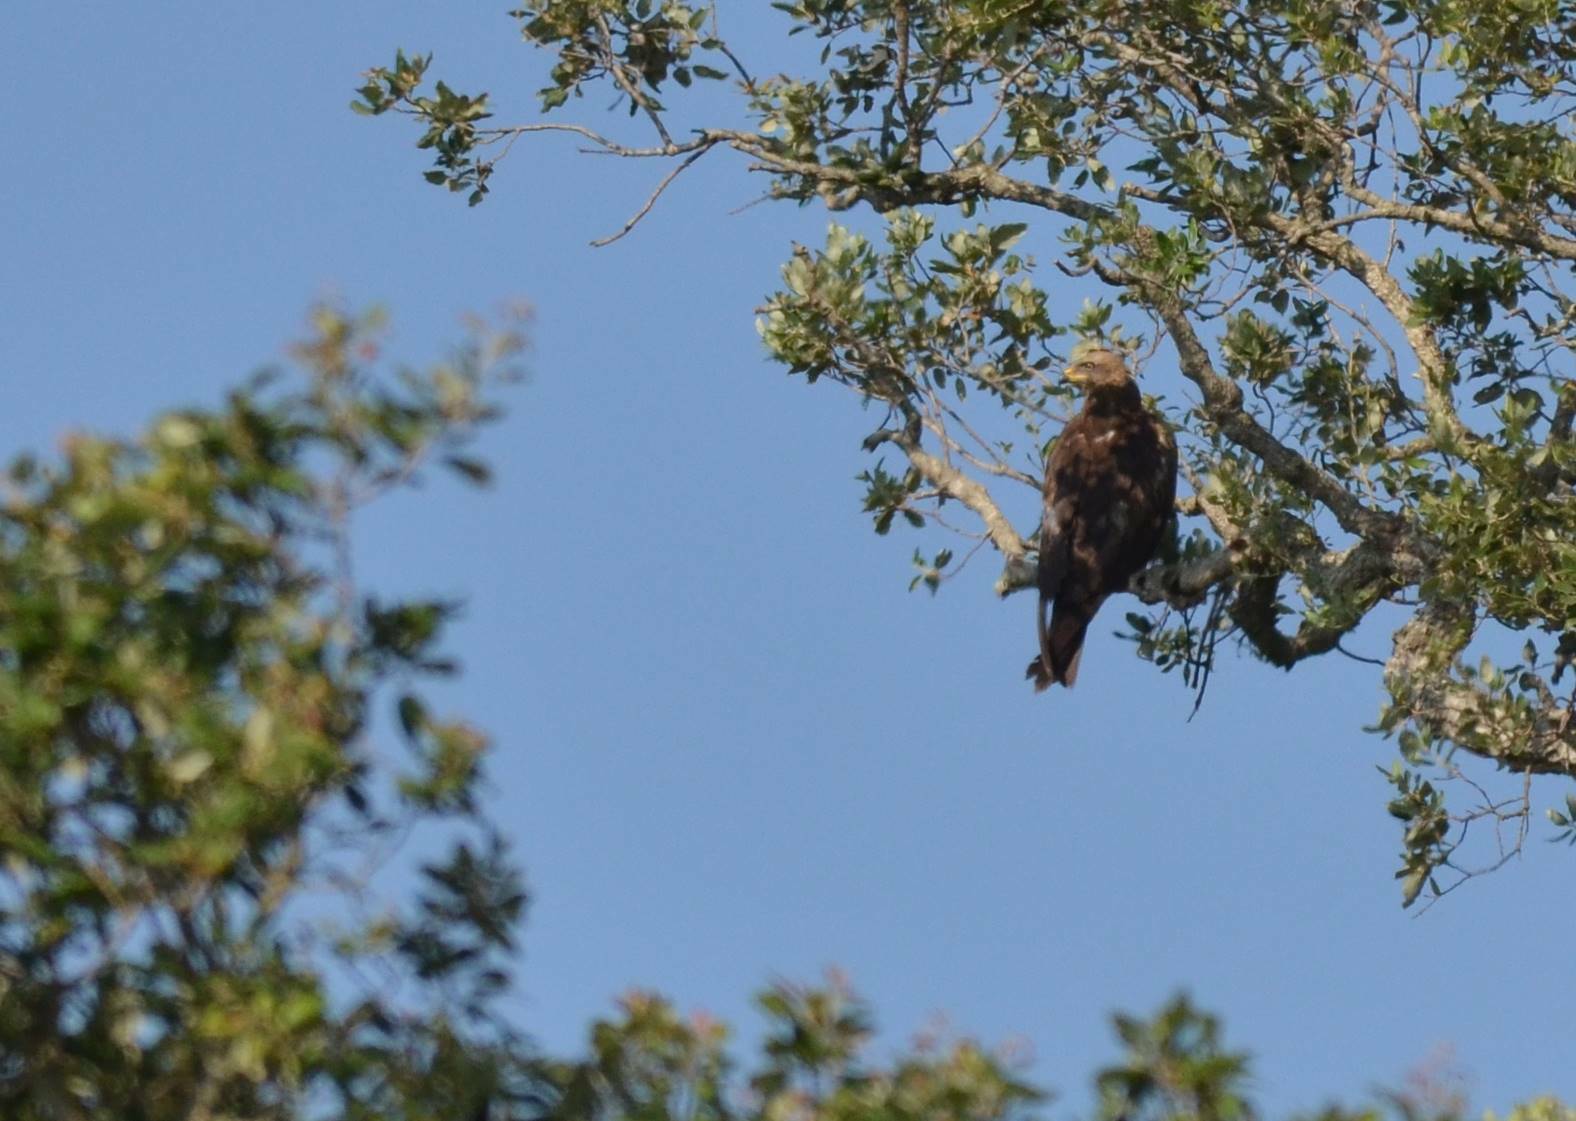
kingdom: Animalia
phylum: Chordata
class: Aves
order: Accipitriformes
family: Accipitridae
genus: Milvus
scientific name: Milvus migrans
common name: Black kite
